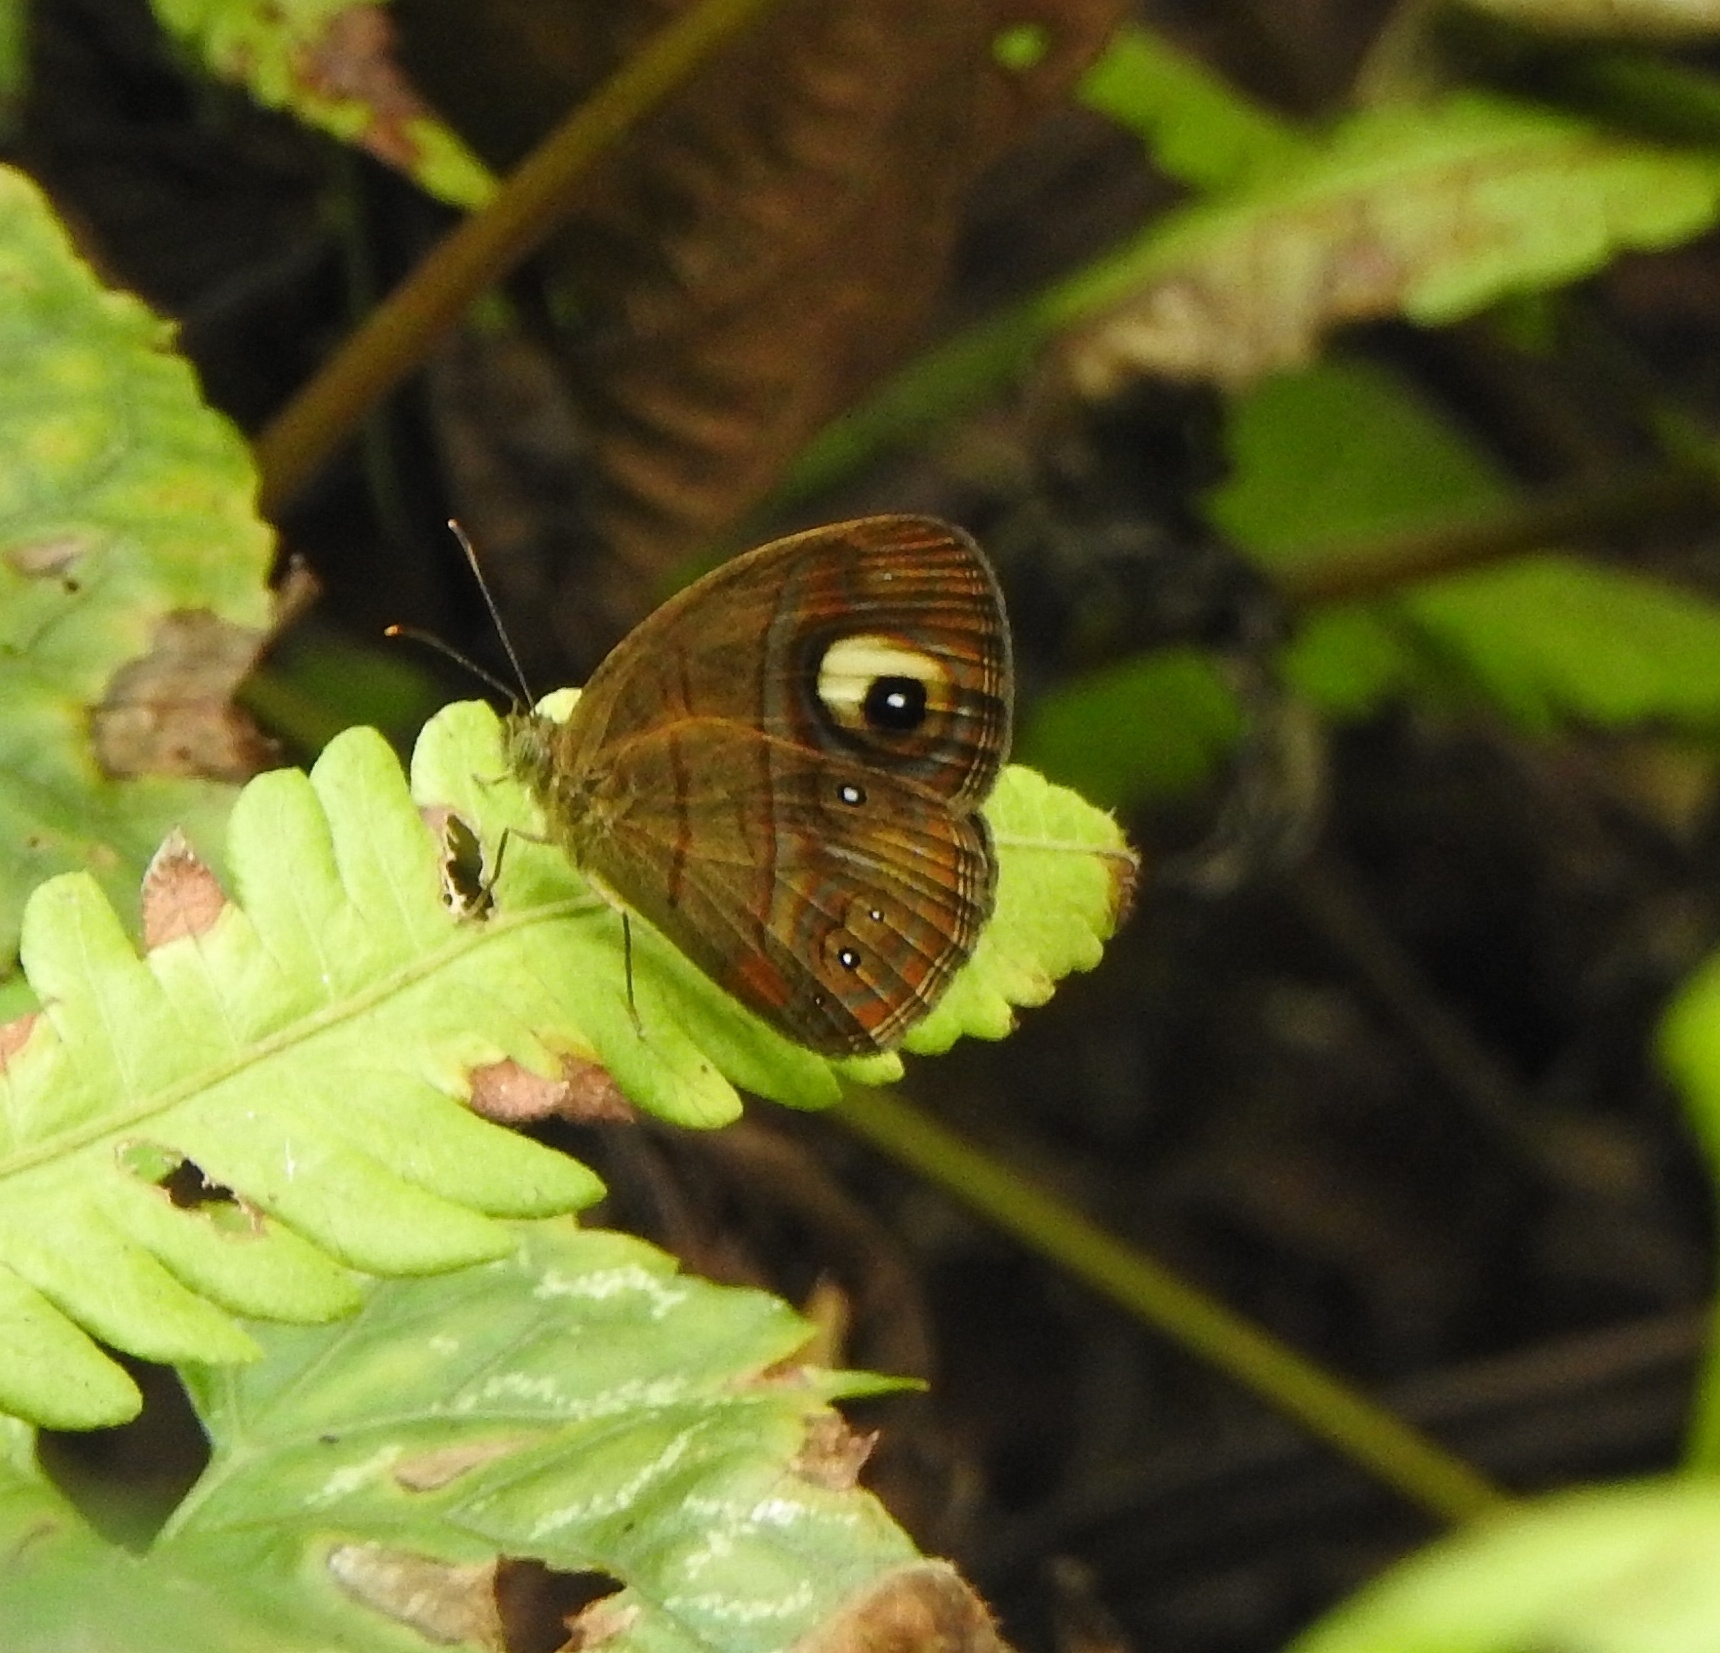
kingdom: Animalia
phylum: Arthropoda
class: Insecta
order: Lepidoptera
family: Nymphalidae
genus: Mycalesis
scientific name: Mycalesis patnia
